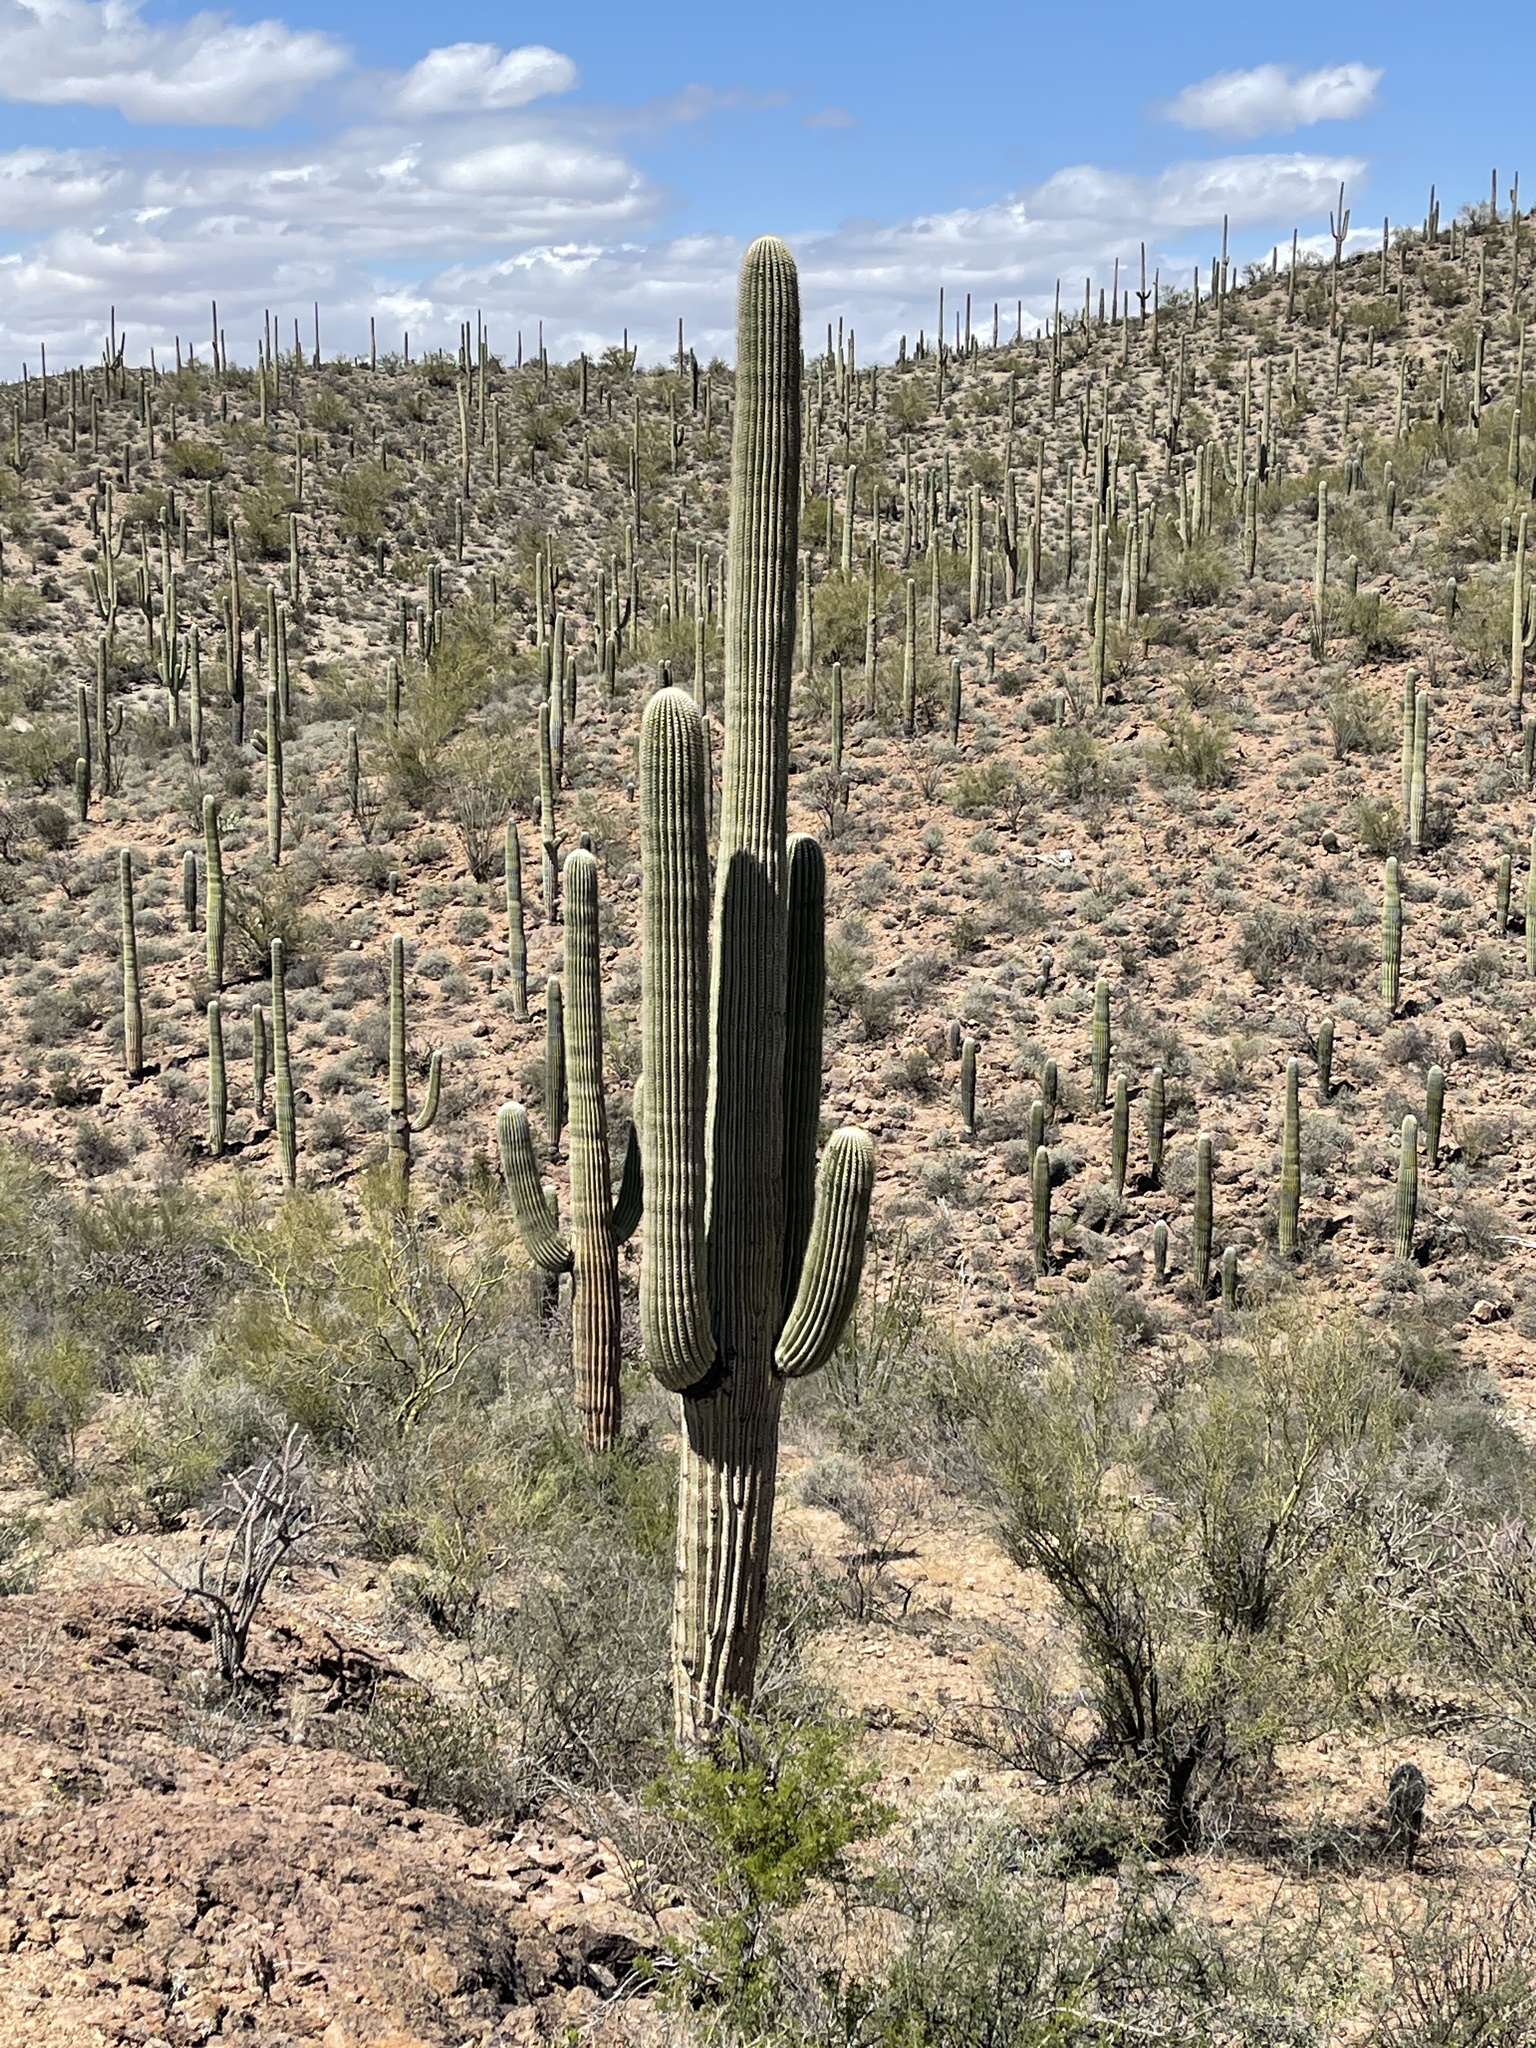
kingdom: Plantae
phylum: Tracheophyta
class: Magnoliopsida
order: Caryophyllales
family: Cactaceae
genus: Carnegiea
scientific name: Carnegiea gigantea
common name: Saguaro
